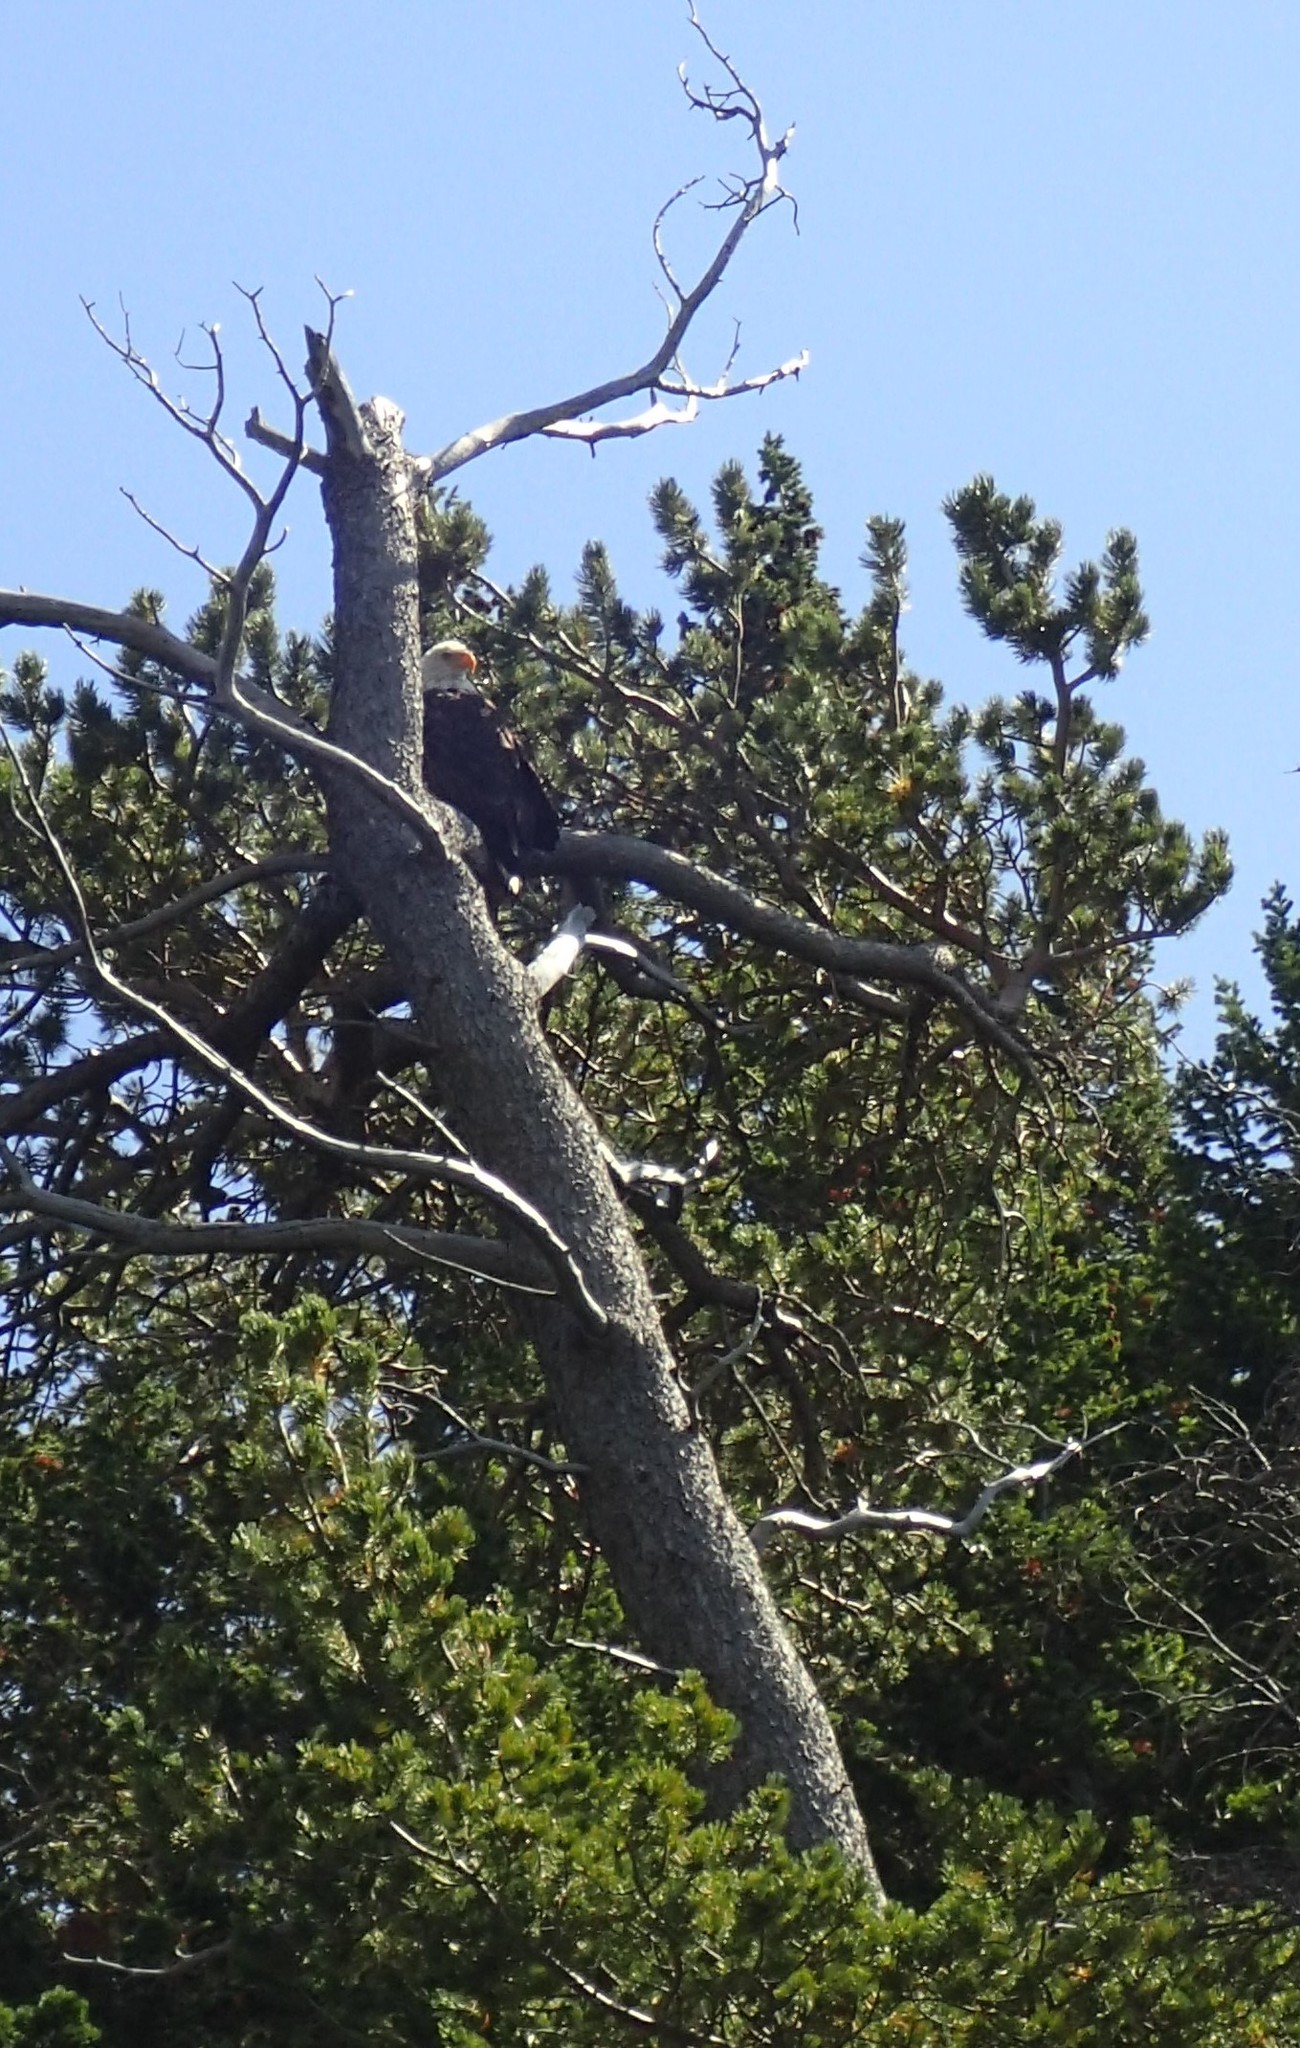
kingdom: Animalia
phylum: Chordata
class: Aves
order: Accipitriformes
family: Accipitridae
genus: Haliaeetus
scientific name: Haliaeetus leucocephalus
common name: Bald eagle
